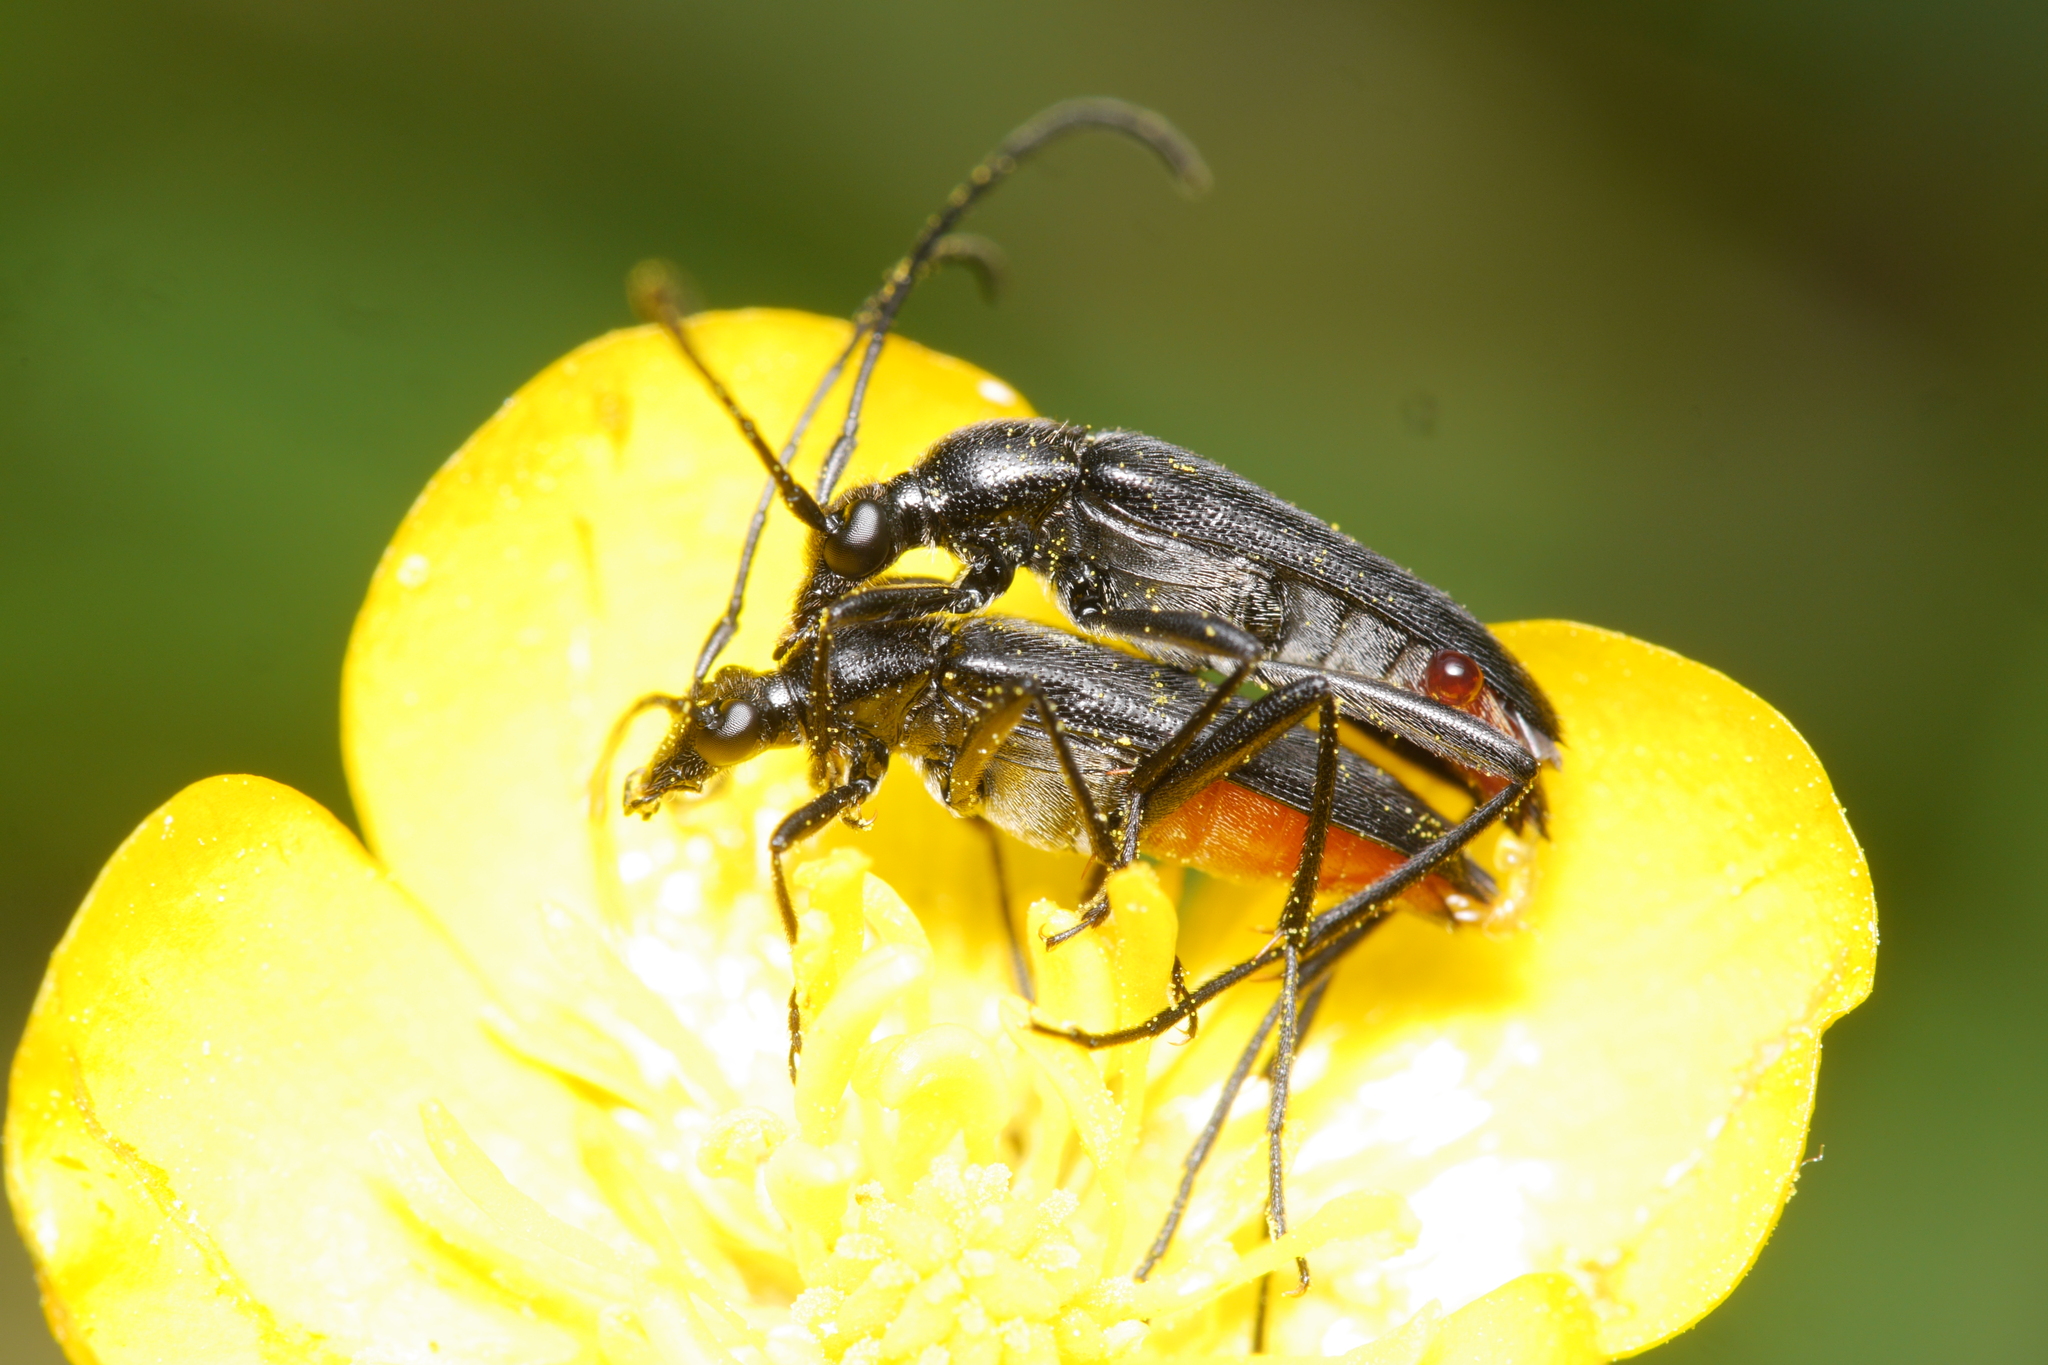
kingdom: Animalia
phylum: Arthropoda
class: Insecta
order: Coleoptera
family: Cerambycidae
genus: Stenurella
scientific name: Stenurella nigra
